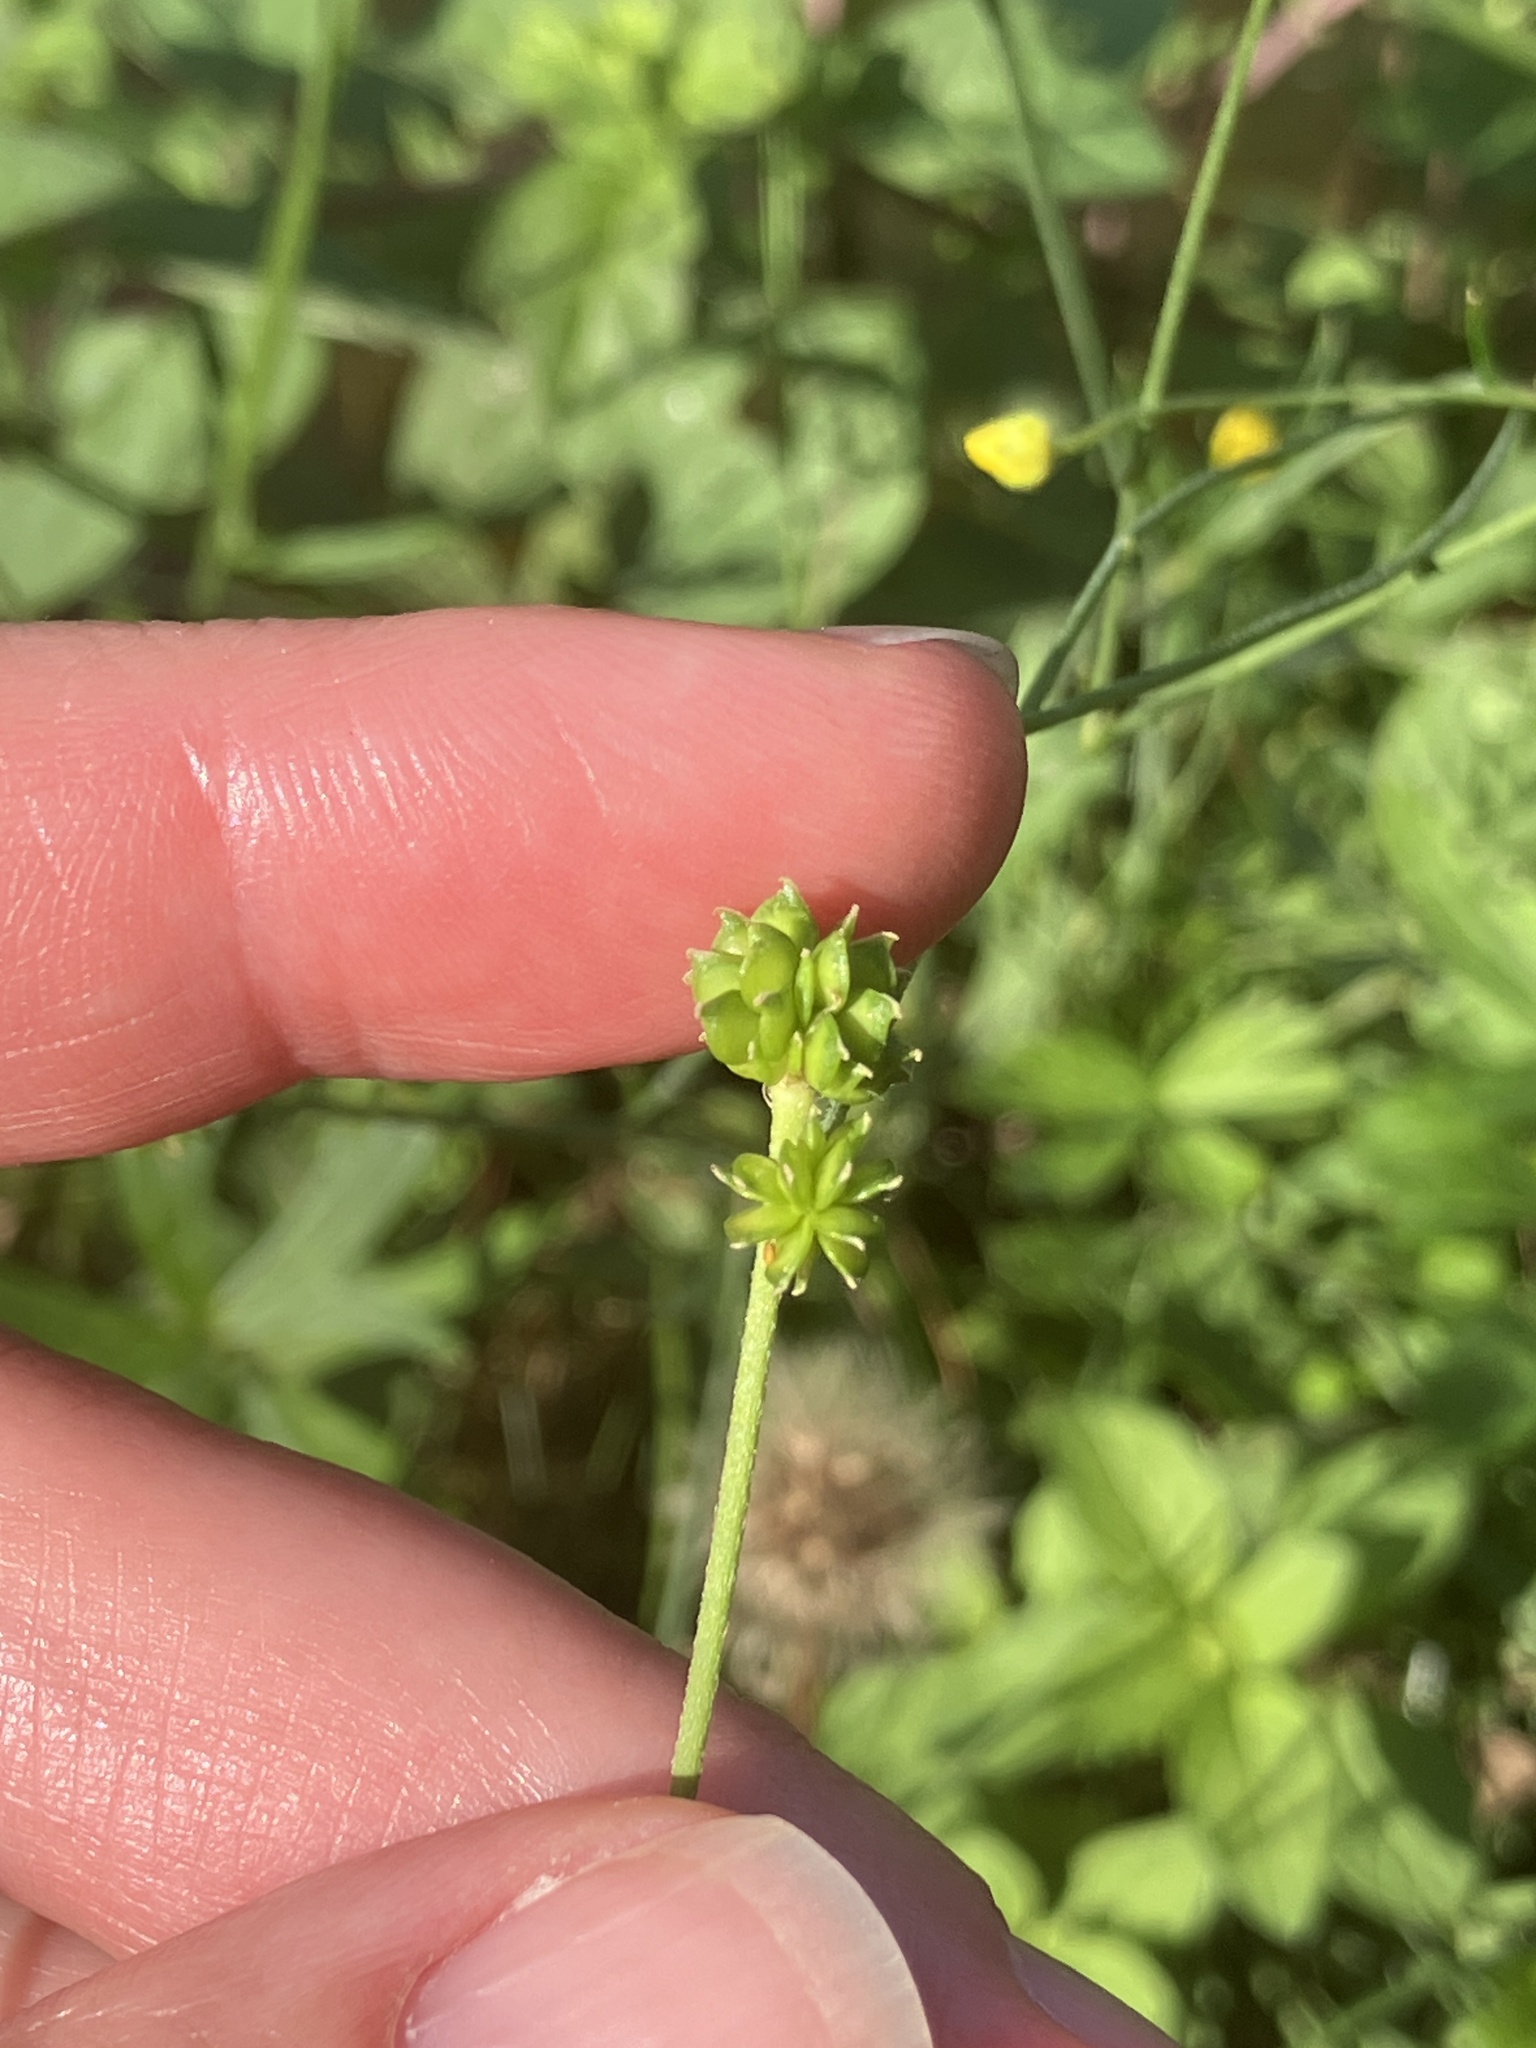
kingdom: Plantae
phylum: Tracheophyta
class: Magnoliopsida
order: Ranunculales
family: Ranunculaceae
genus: Ranunculus
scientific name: Ranunculus acris
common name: Meadow buttercup
